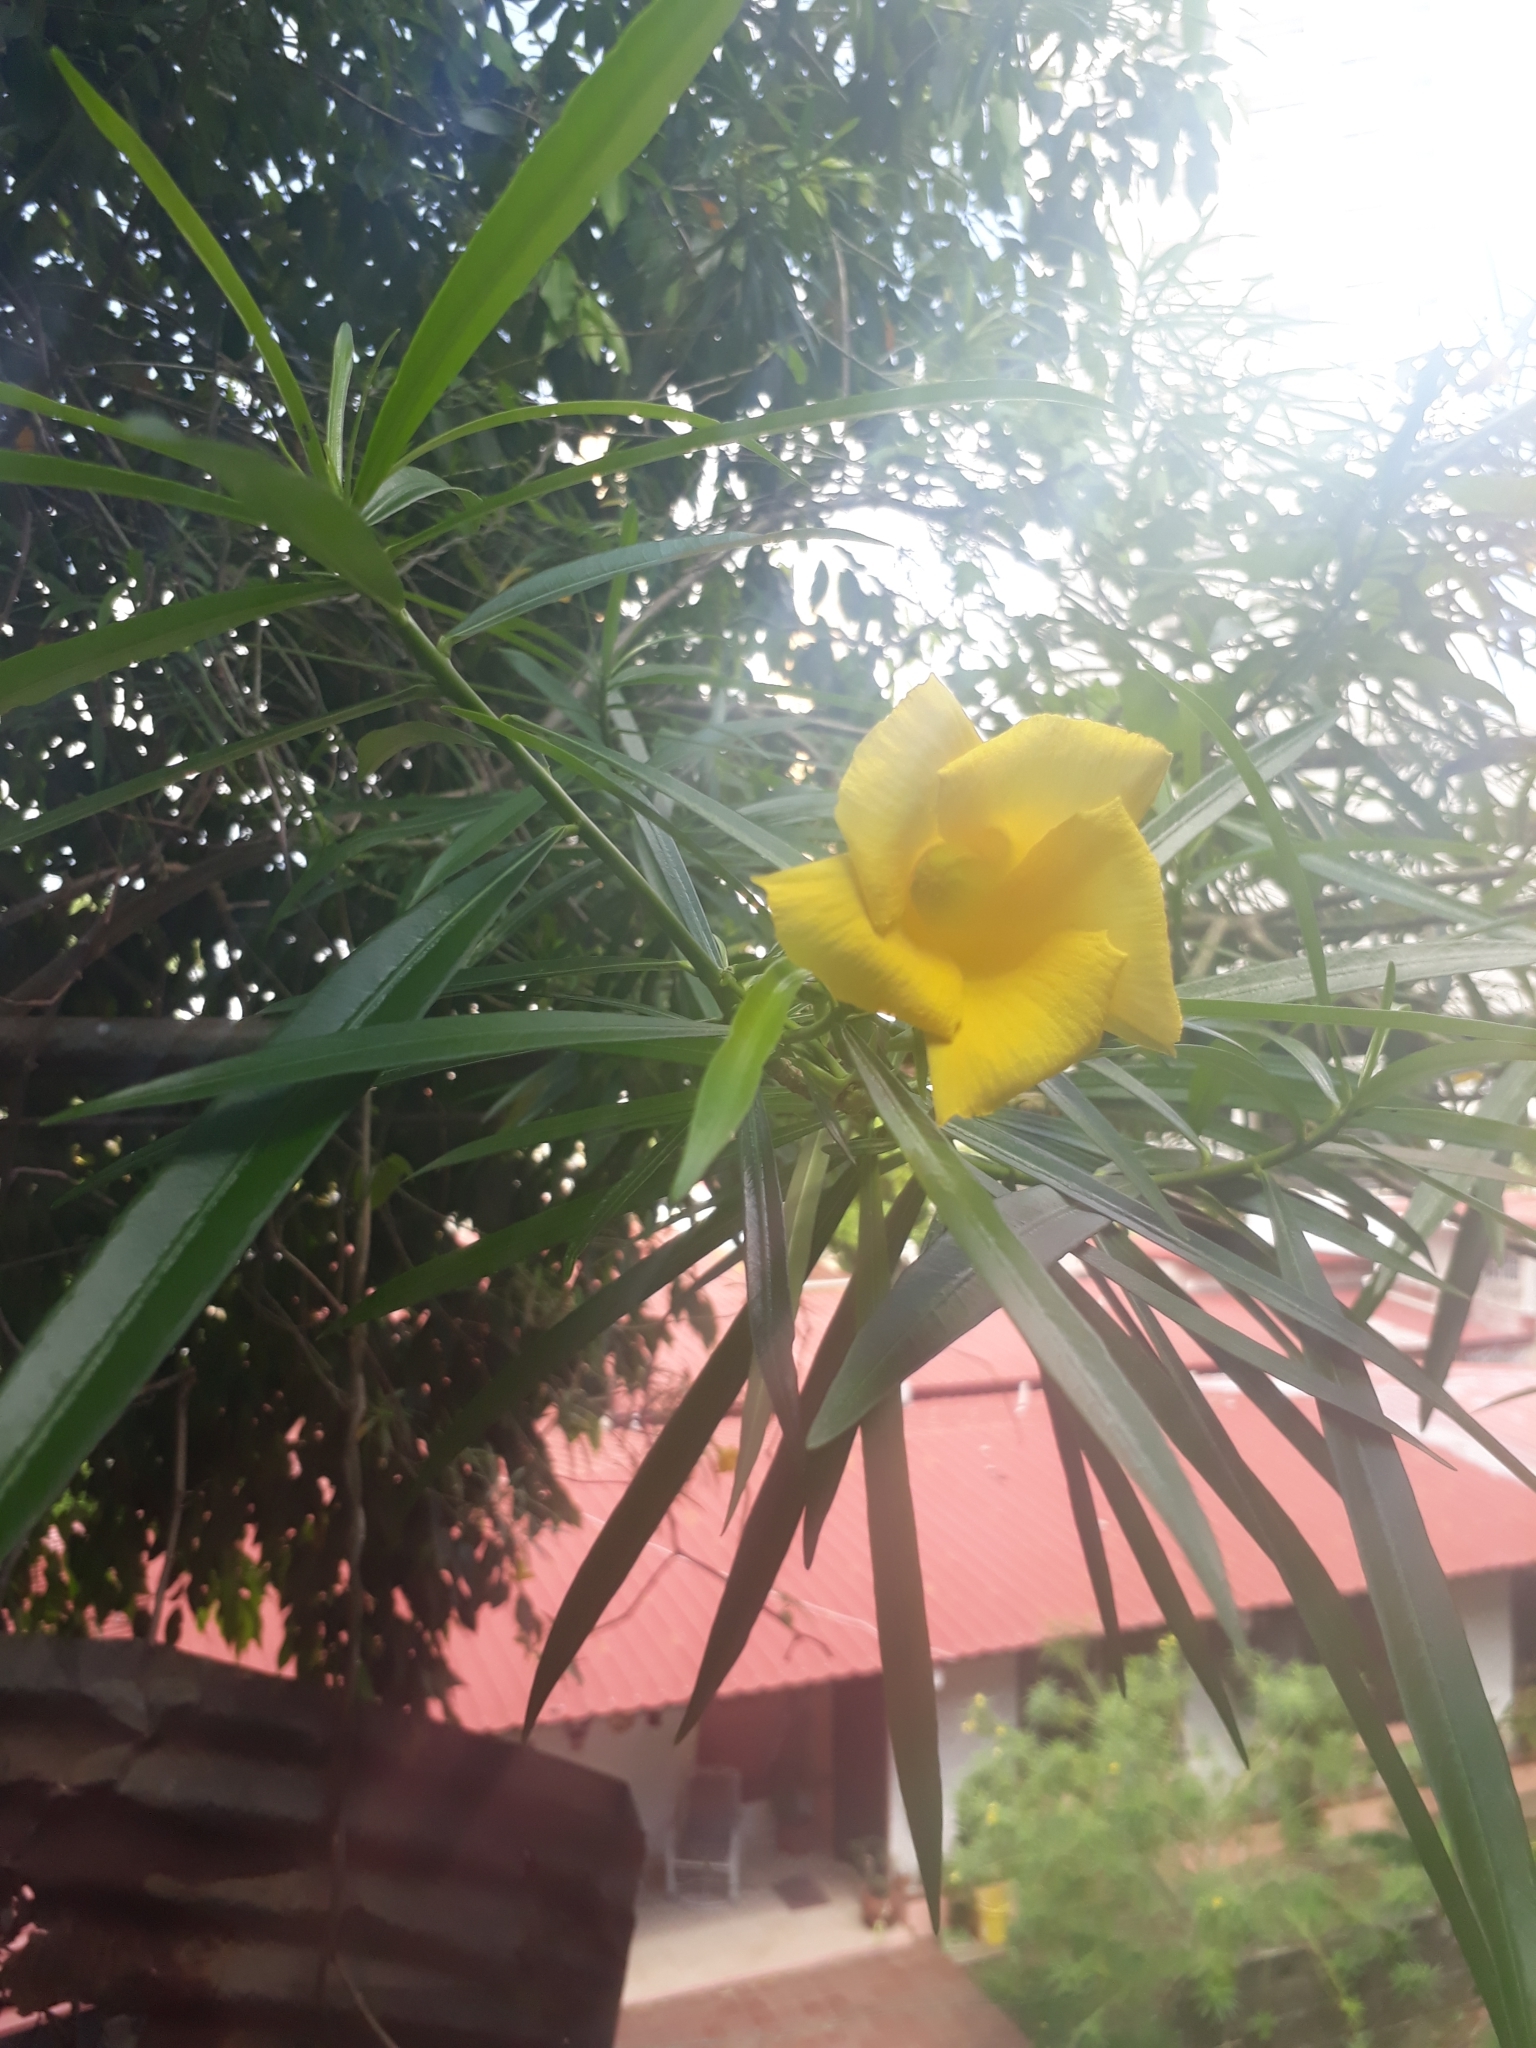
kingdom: Plantae
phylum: Tracheophyta
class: Magnoliopsida
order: Gentianales
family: Apocynaceae
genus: Cascabela
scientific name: Cascabela thevetia
